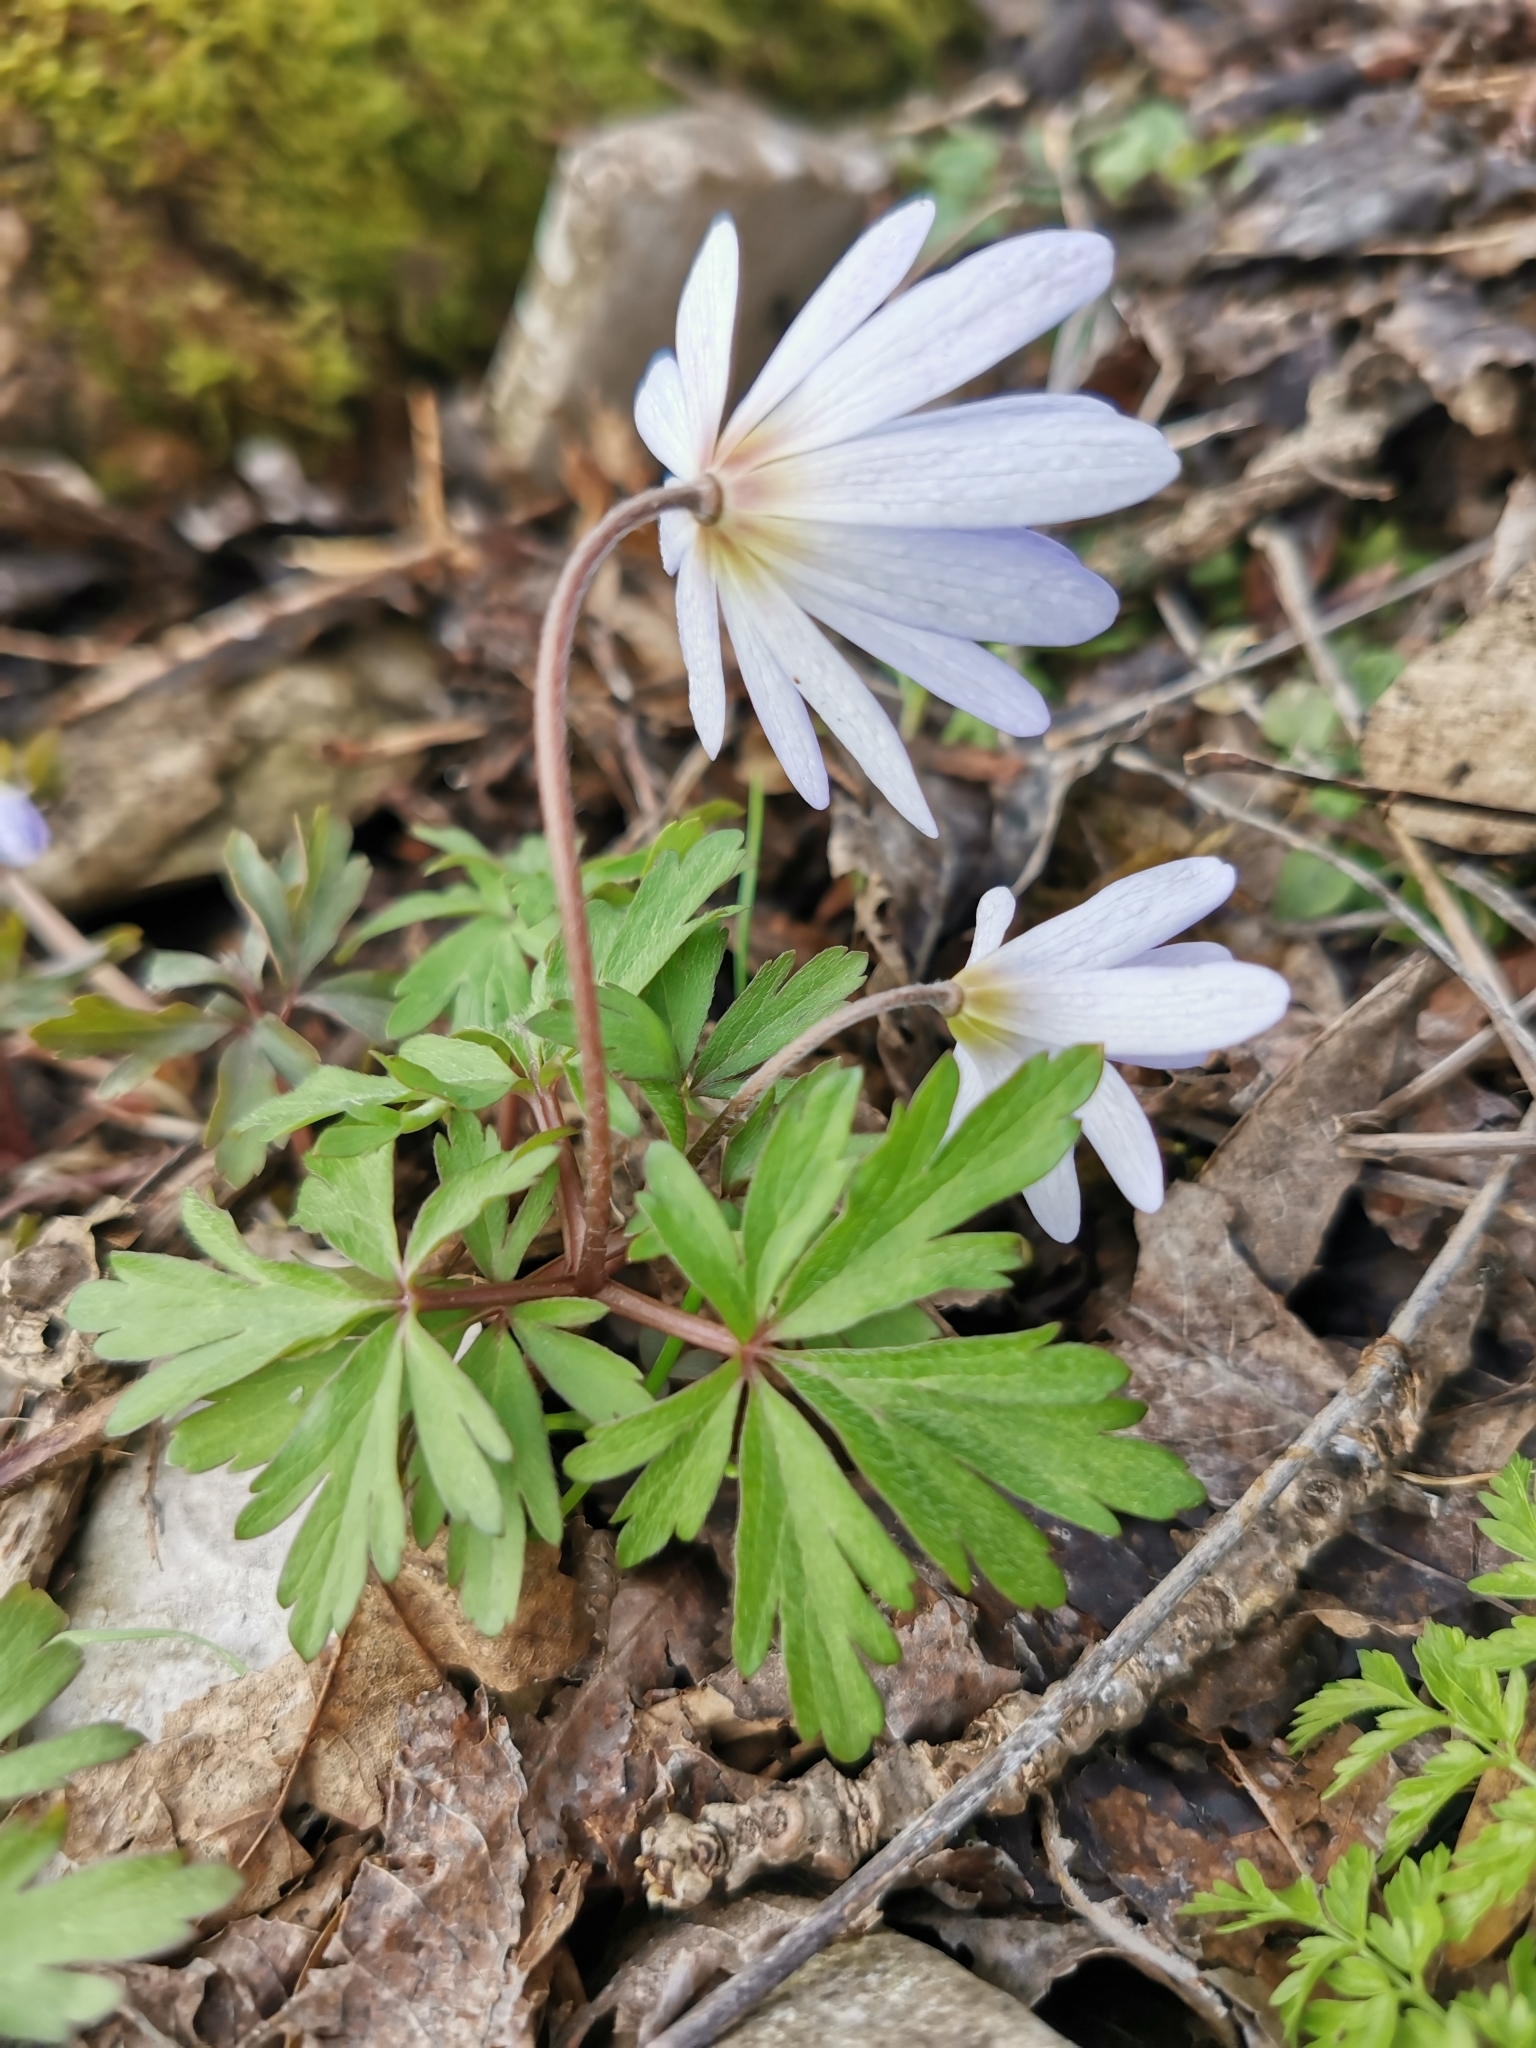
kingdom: Plantae
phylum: Tracheophyta
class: Magnoliopsida
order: Ranunculales
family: Ranunculaceae
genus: Anemone
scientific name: Anemone blanda
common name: Balkan anemone
